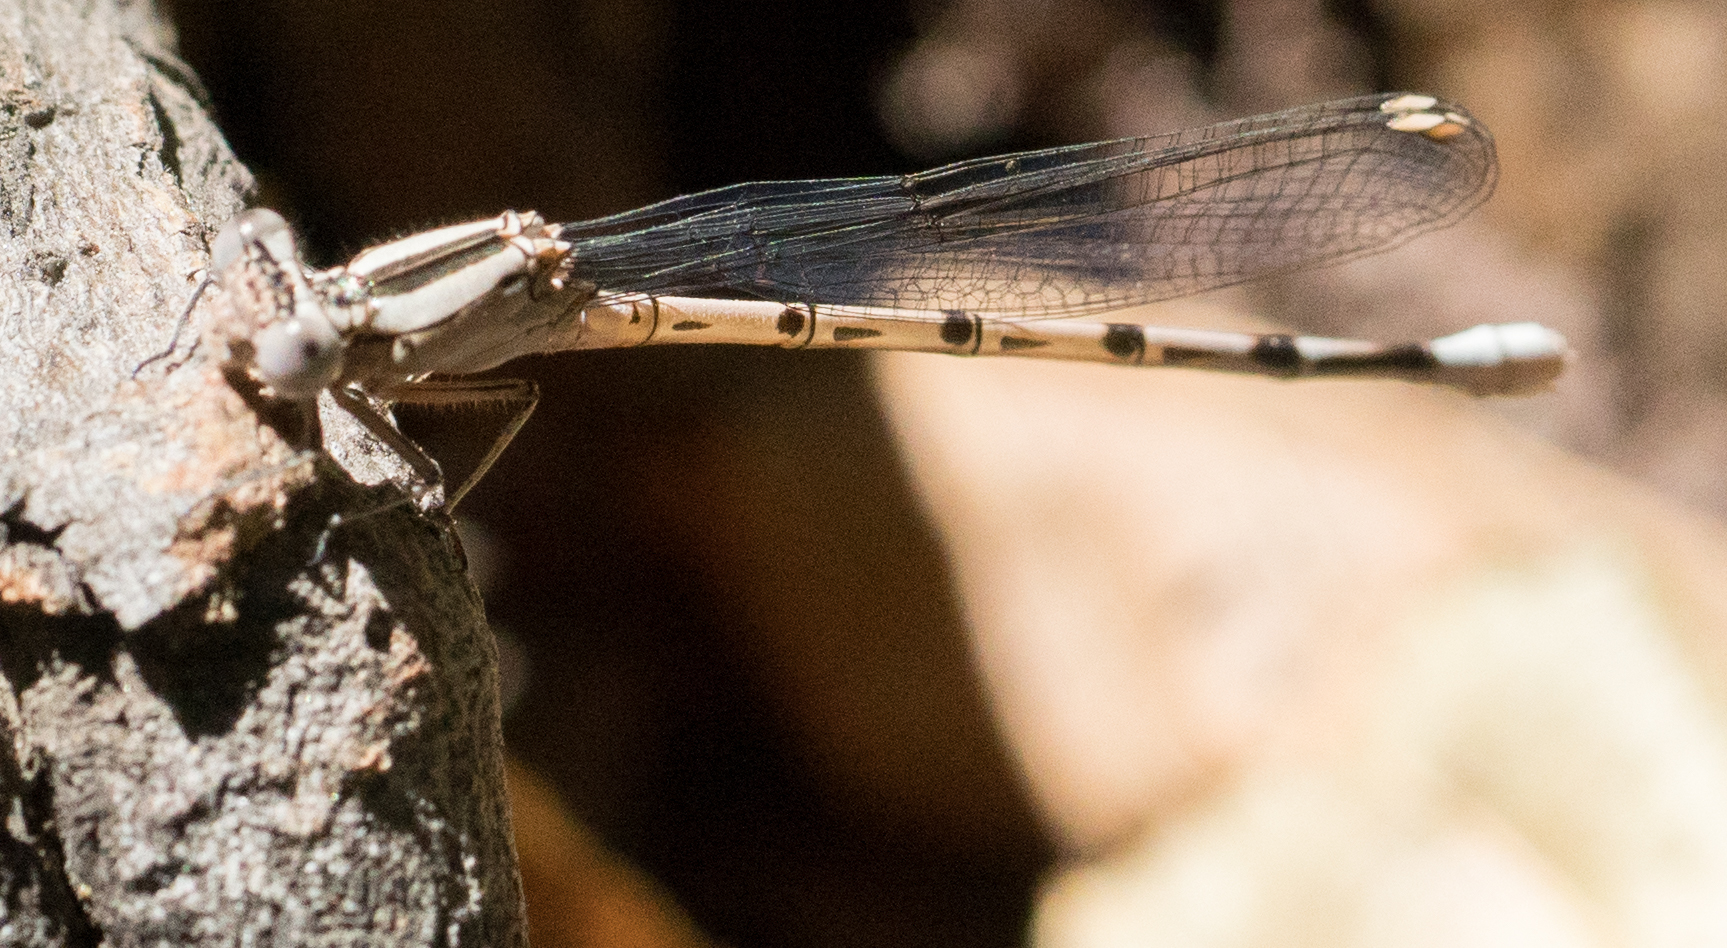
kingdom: Animalia
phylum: Arthropoda
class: Insecta
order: Odonata
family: Coenagrionidae
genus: Argia
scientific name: Argia vivida
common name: Vivid dancer
